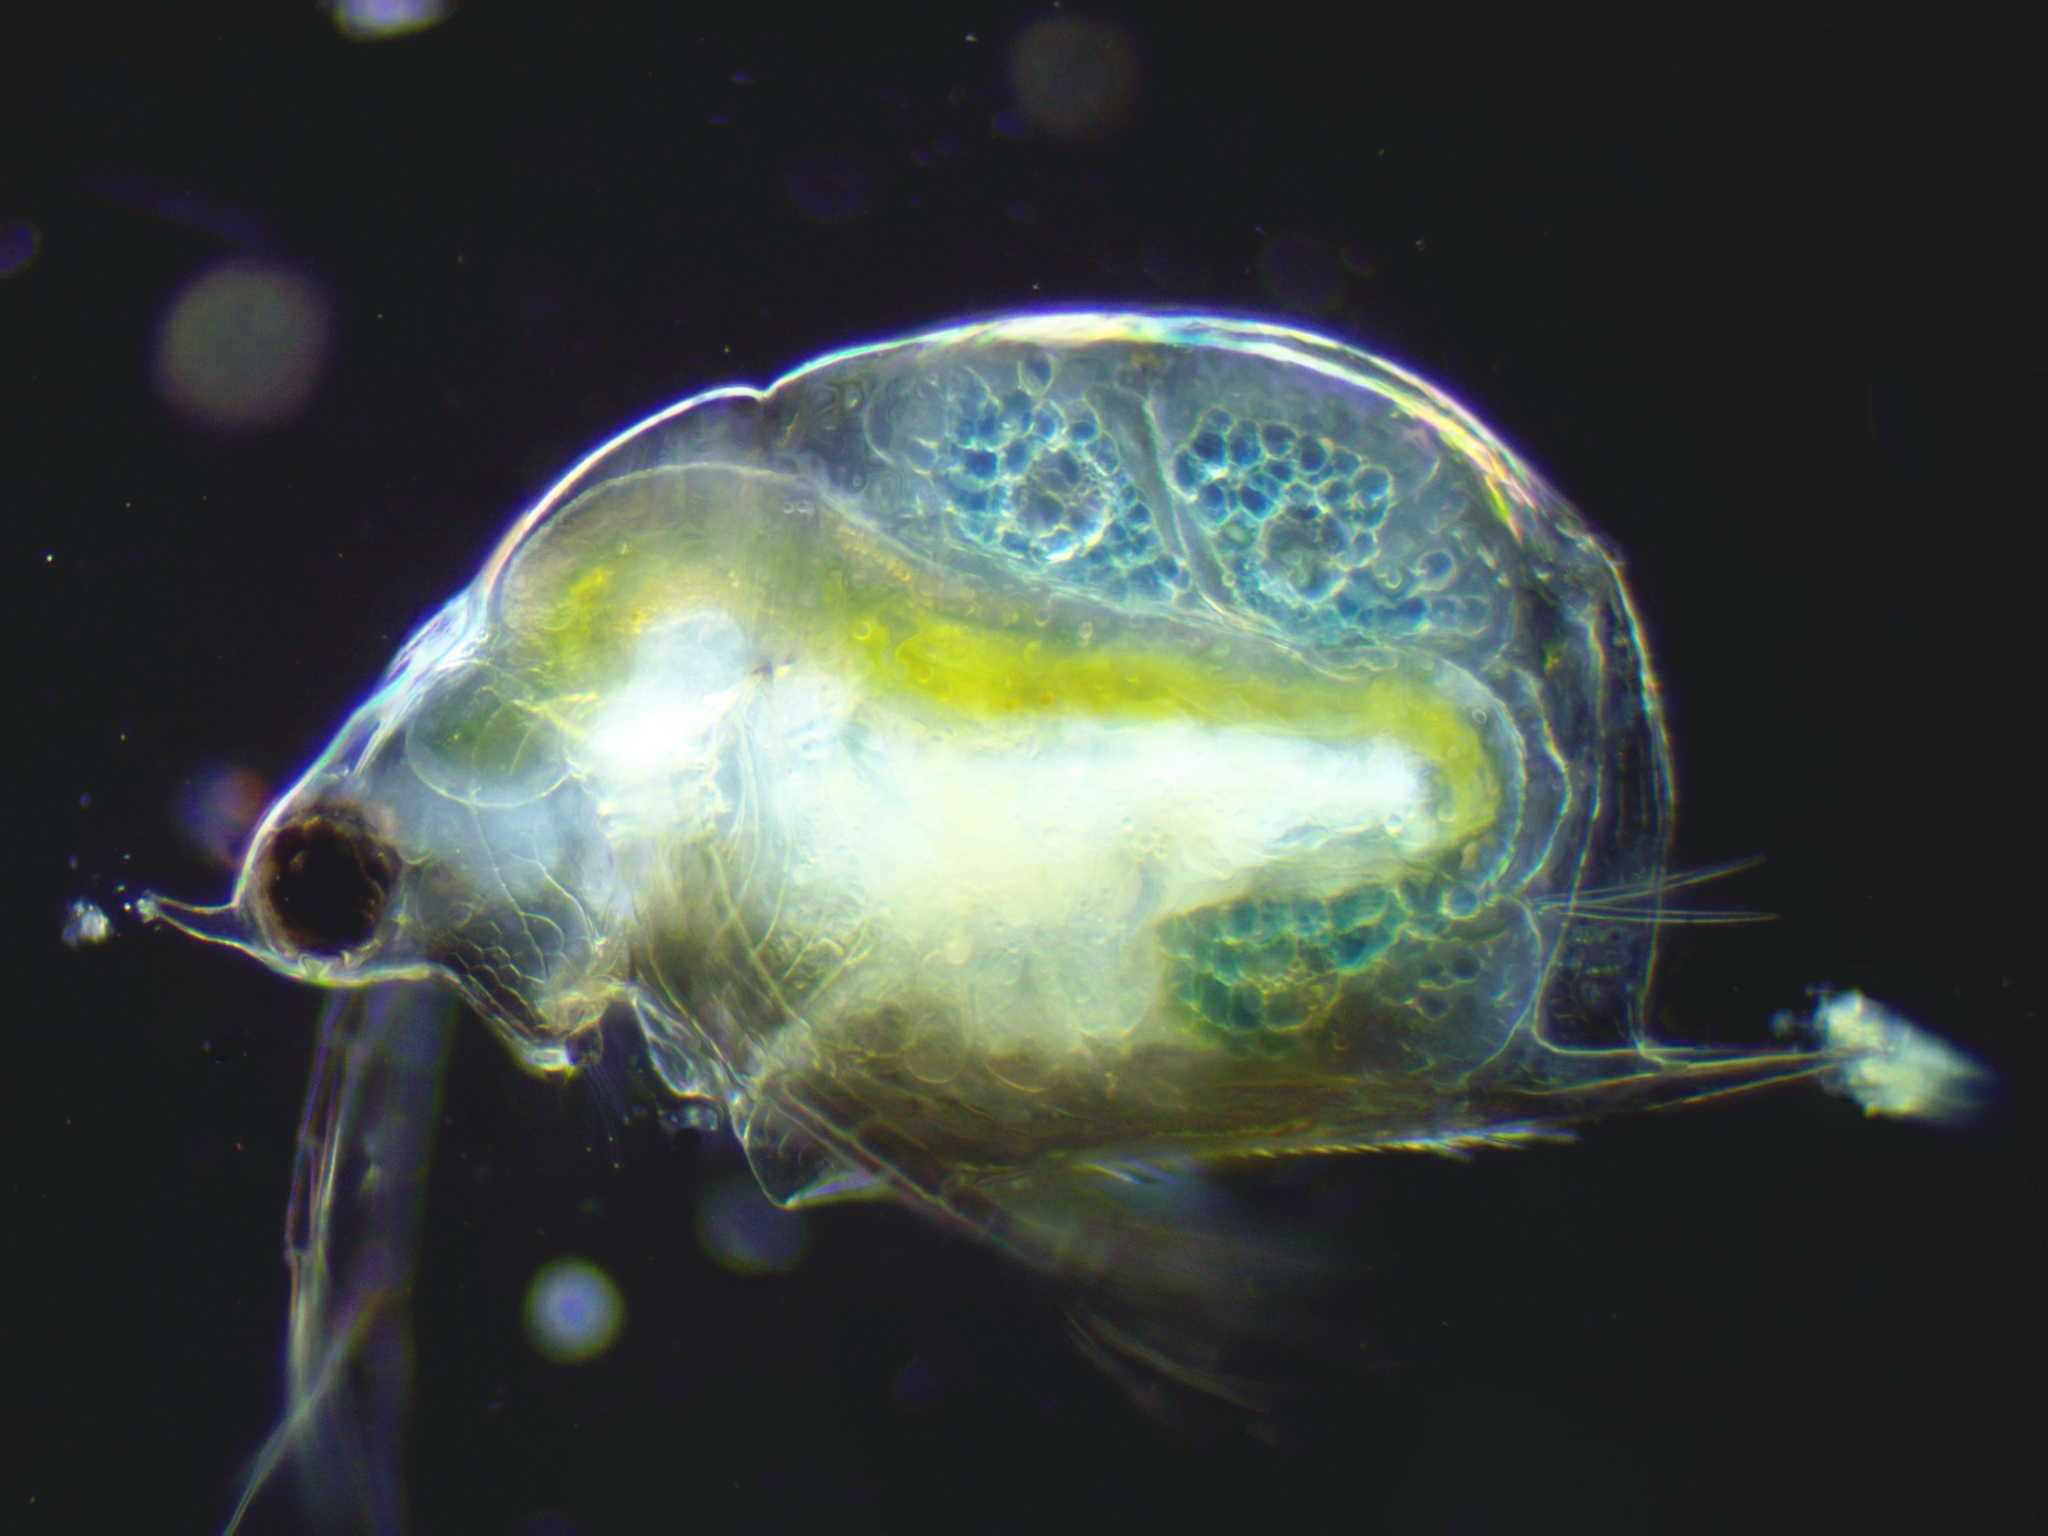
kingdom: Animalia
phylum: Arthropoda
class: Branchiopoda
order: Diplostraca
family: Daphniidae
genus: Scapholeberis
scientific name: Scapholeberis mucronata
